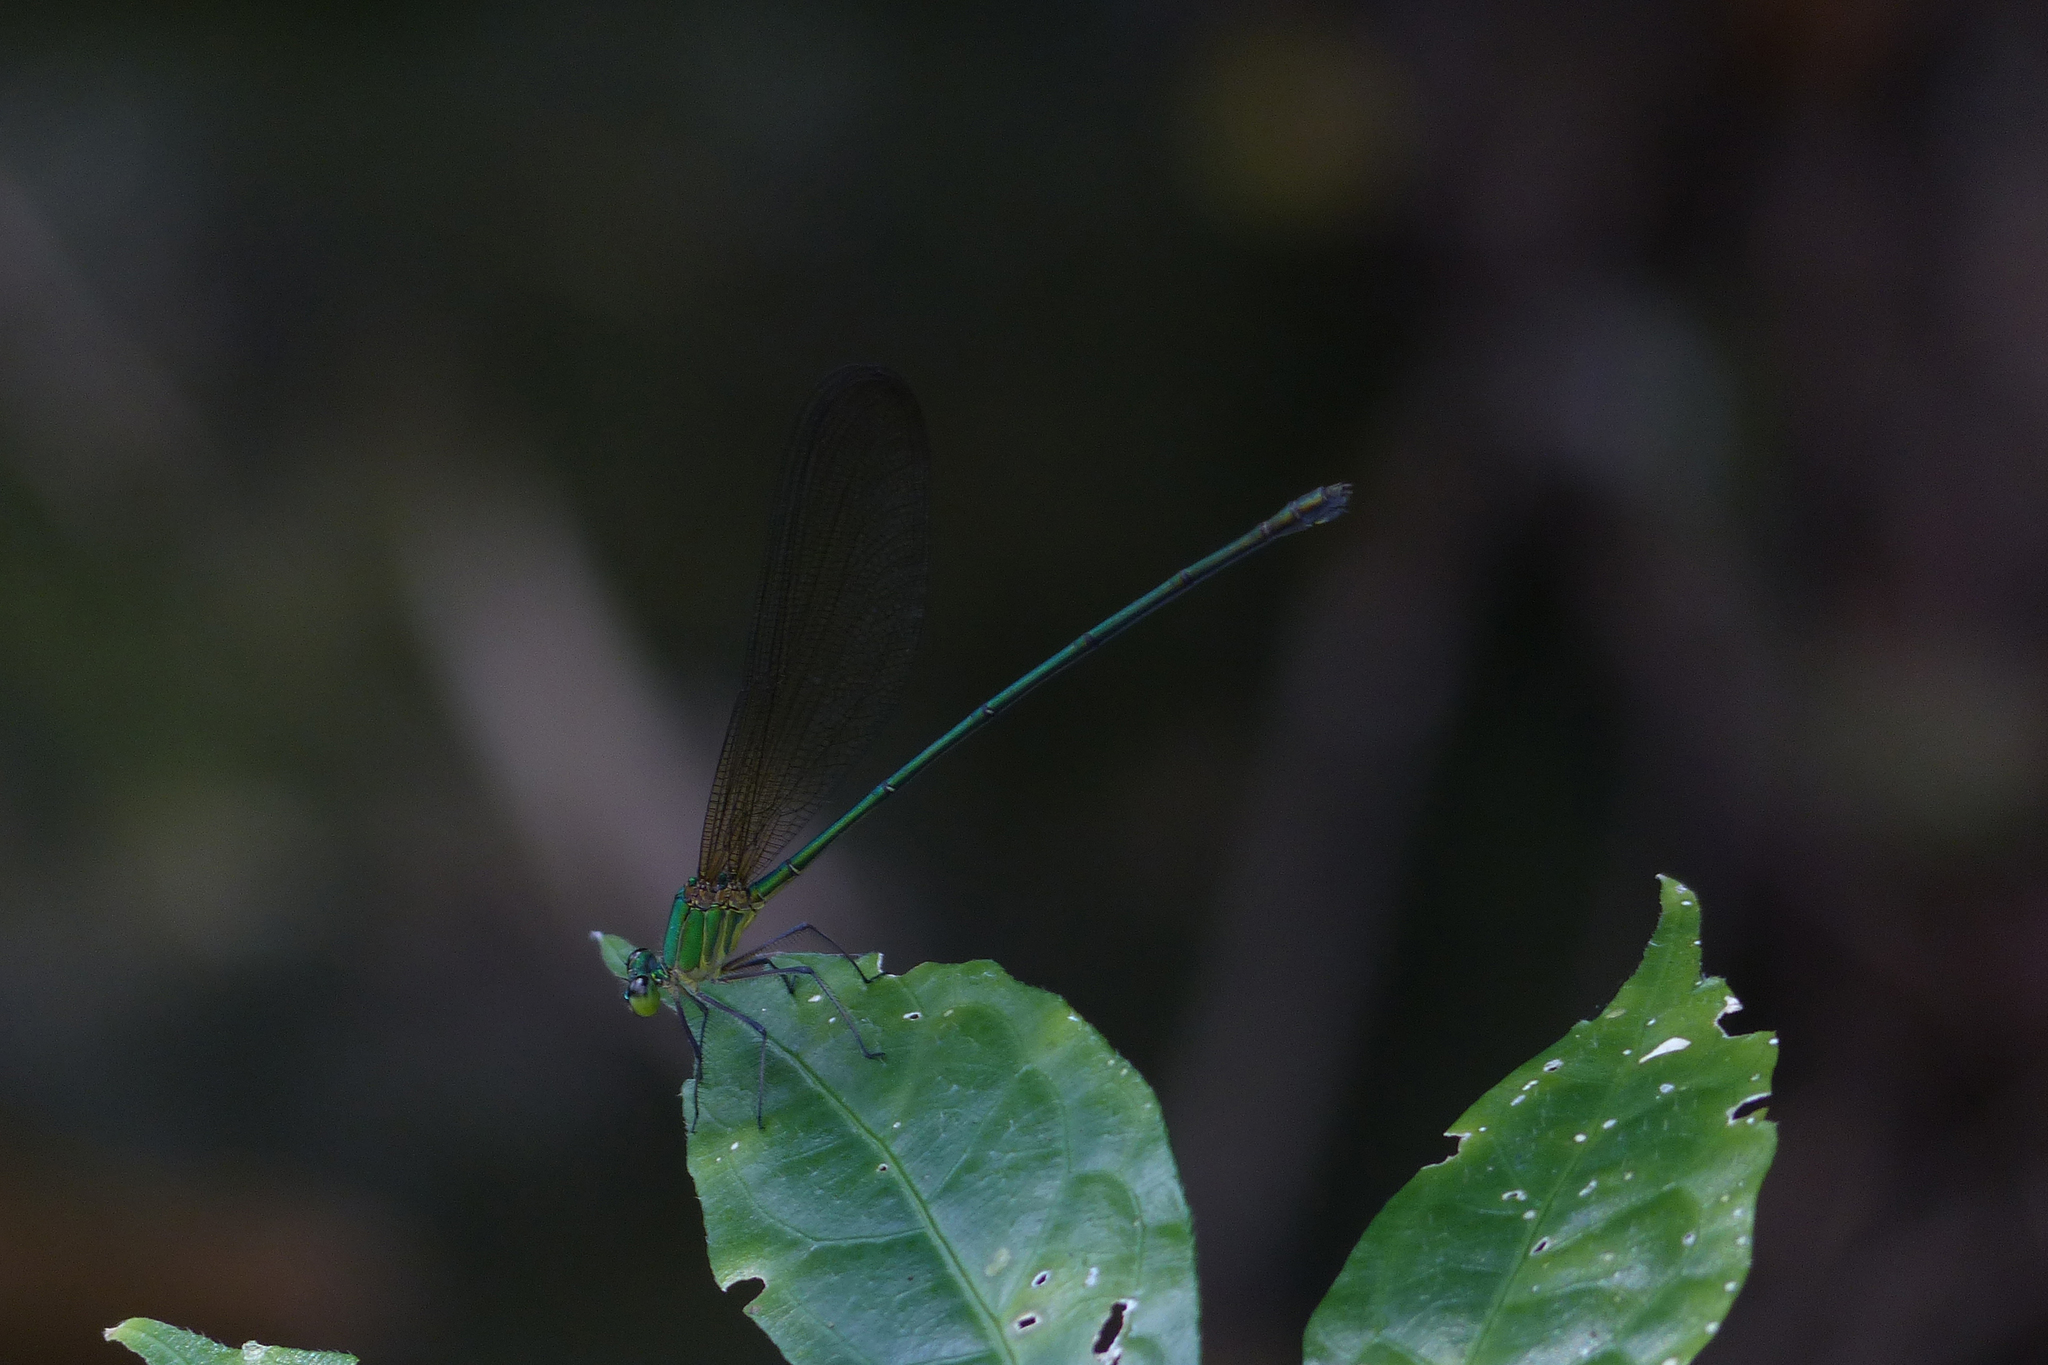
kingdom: Animalia
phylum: Arthropoda
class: Insecta
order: Odonata
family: Calopterygidae
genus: Vestalis
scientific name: Vestalis gracilis
